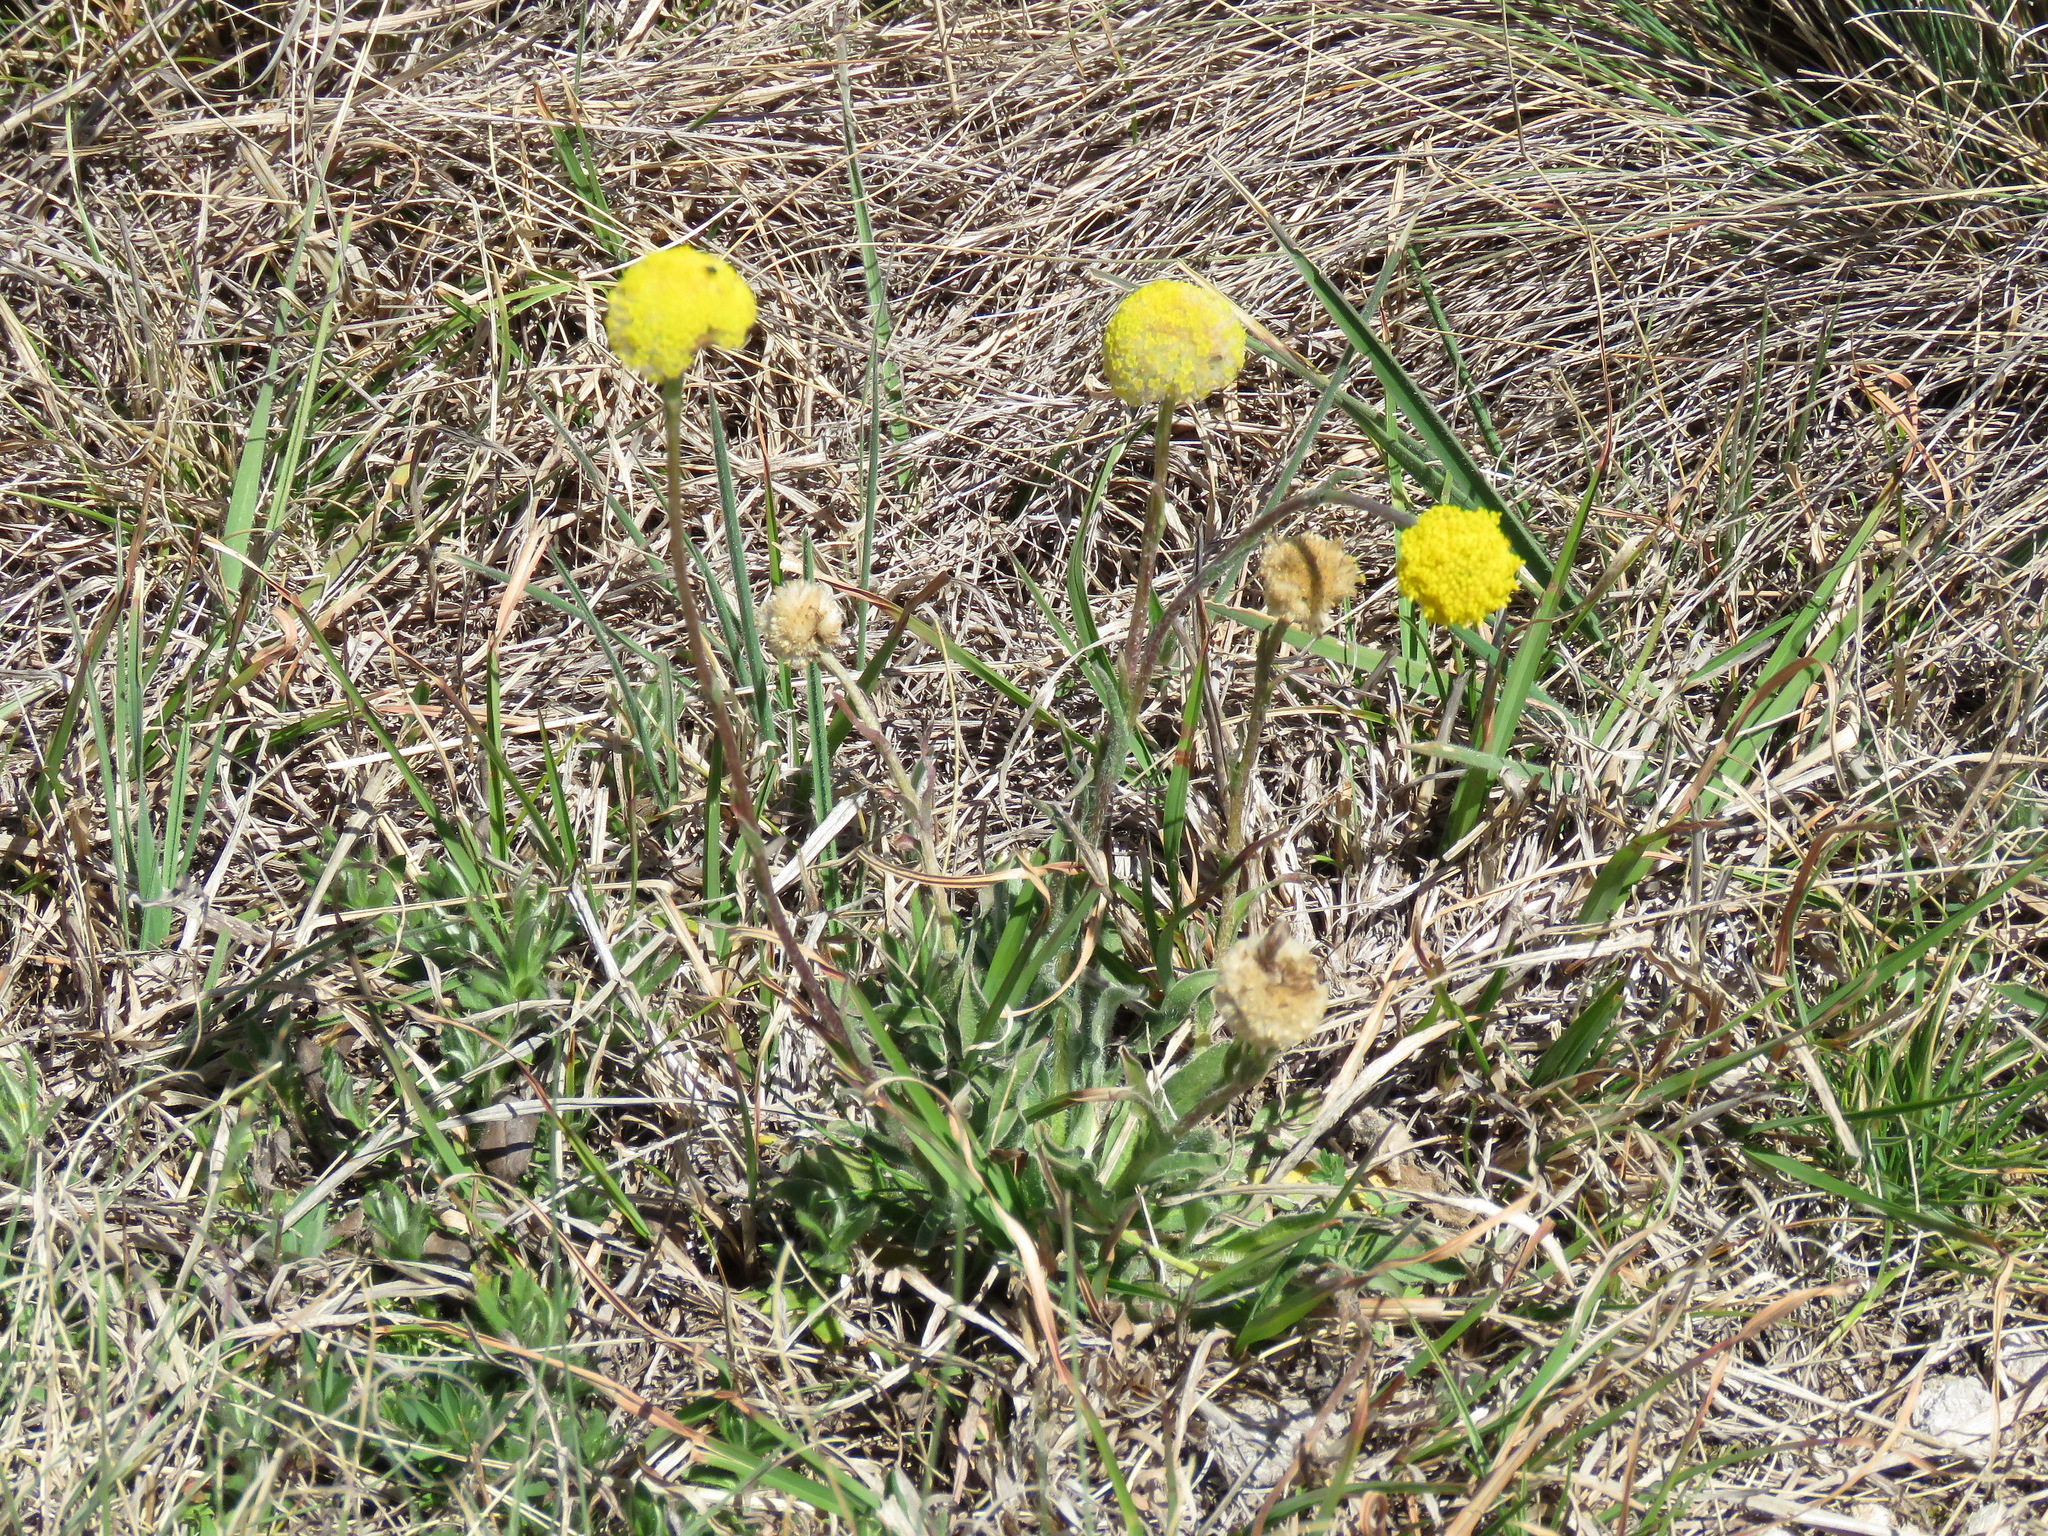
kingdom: Plantae
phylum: Tracheophyta
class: Magnoliopsida
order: Asterales
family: Asteraceae
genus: Craspedia
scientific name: Craspedia
